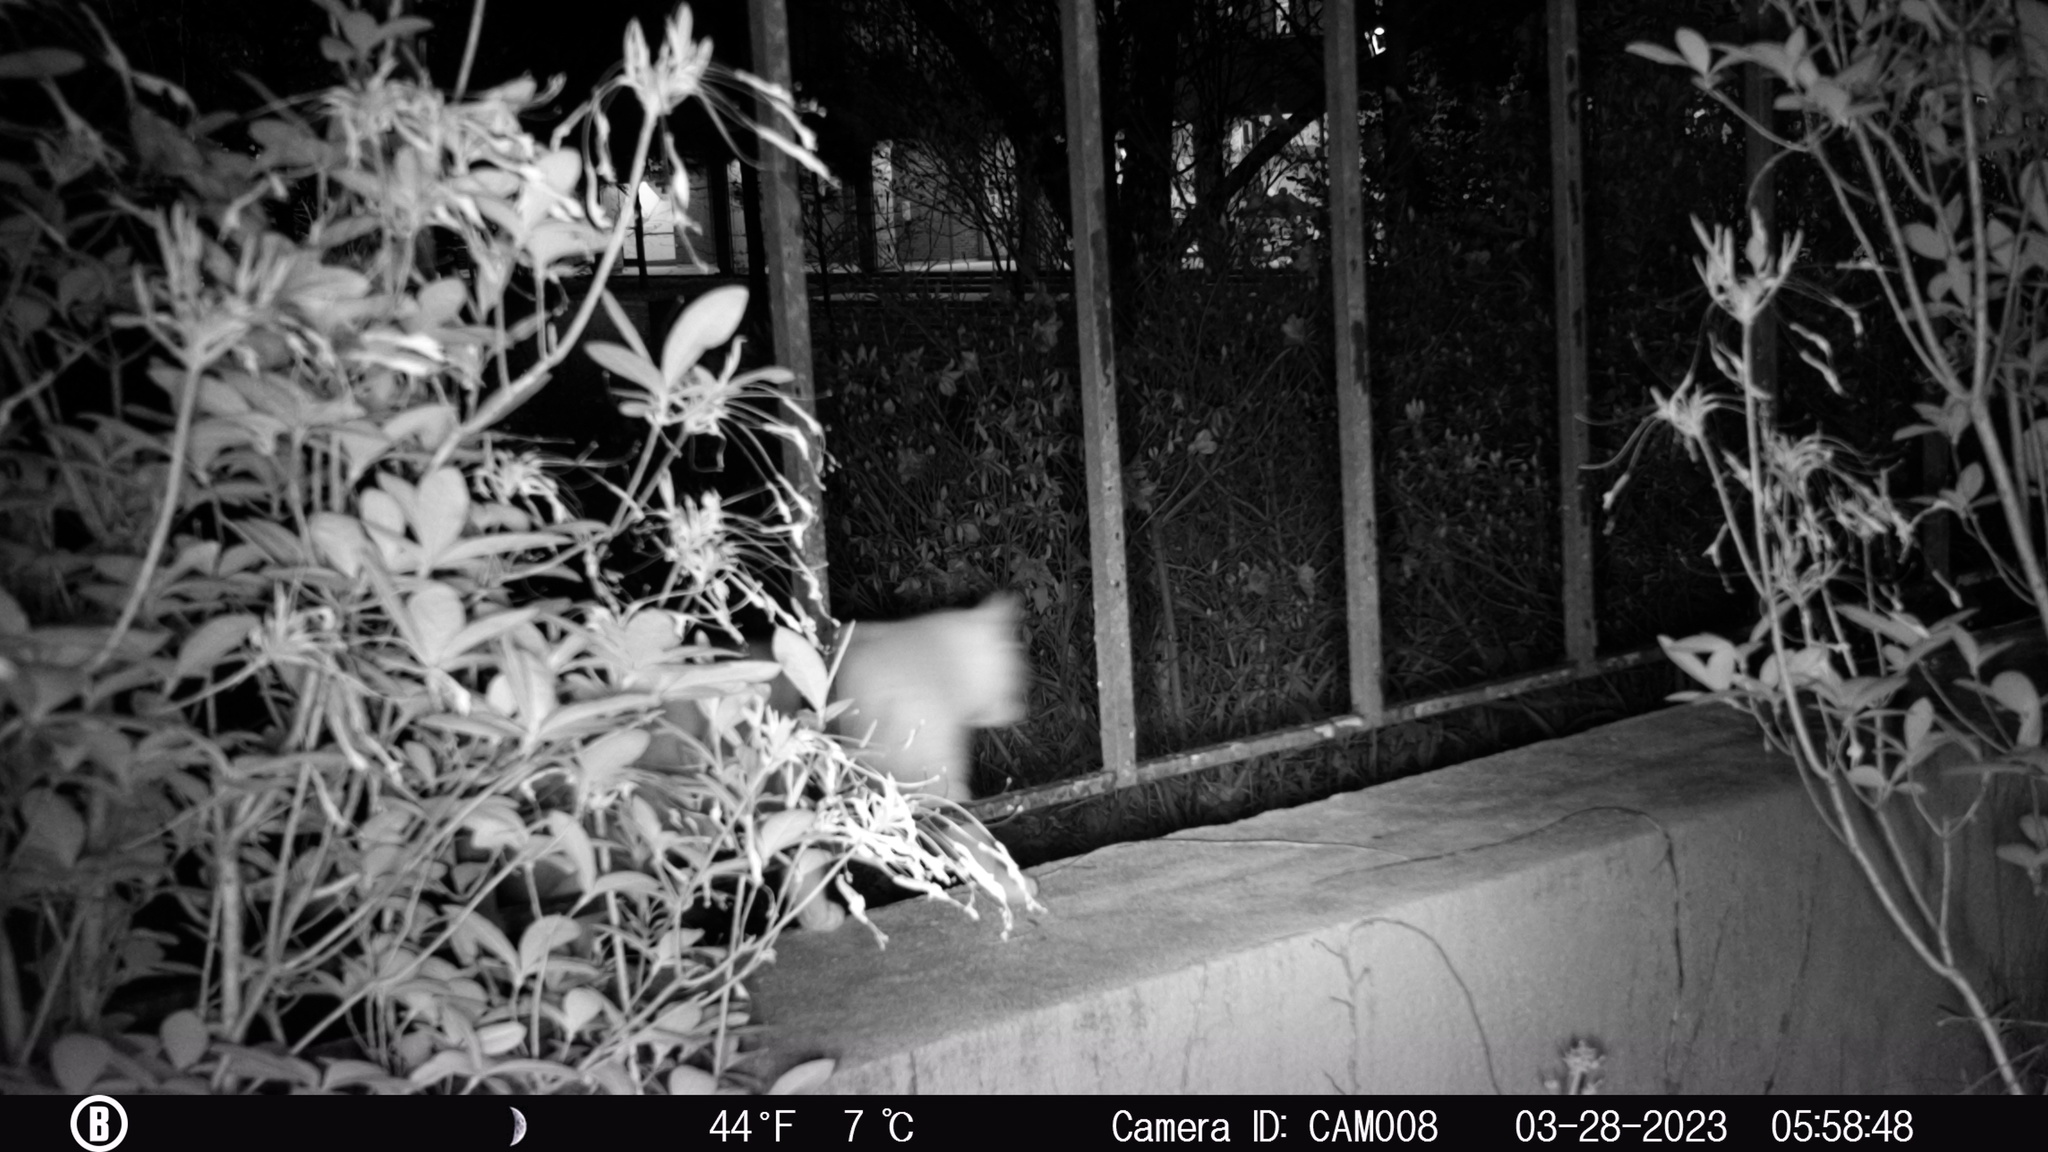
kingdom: Animalia
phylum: Chordata
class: Mammalia
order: Carnivora
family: Felidae
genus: Felis
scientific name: Felis catus
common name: Domestic cat
